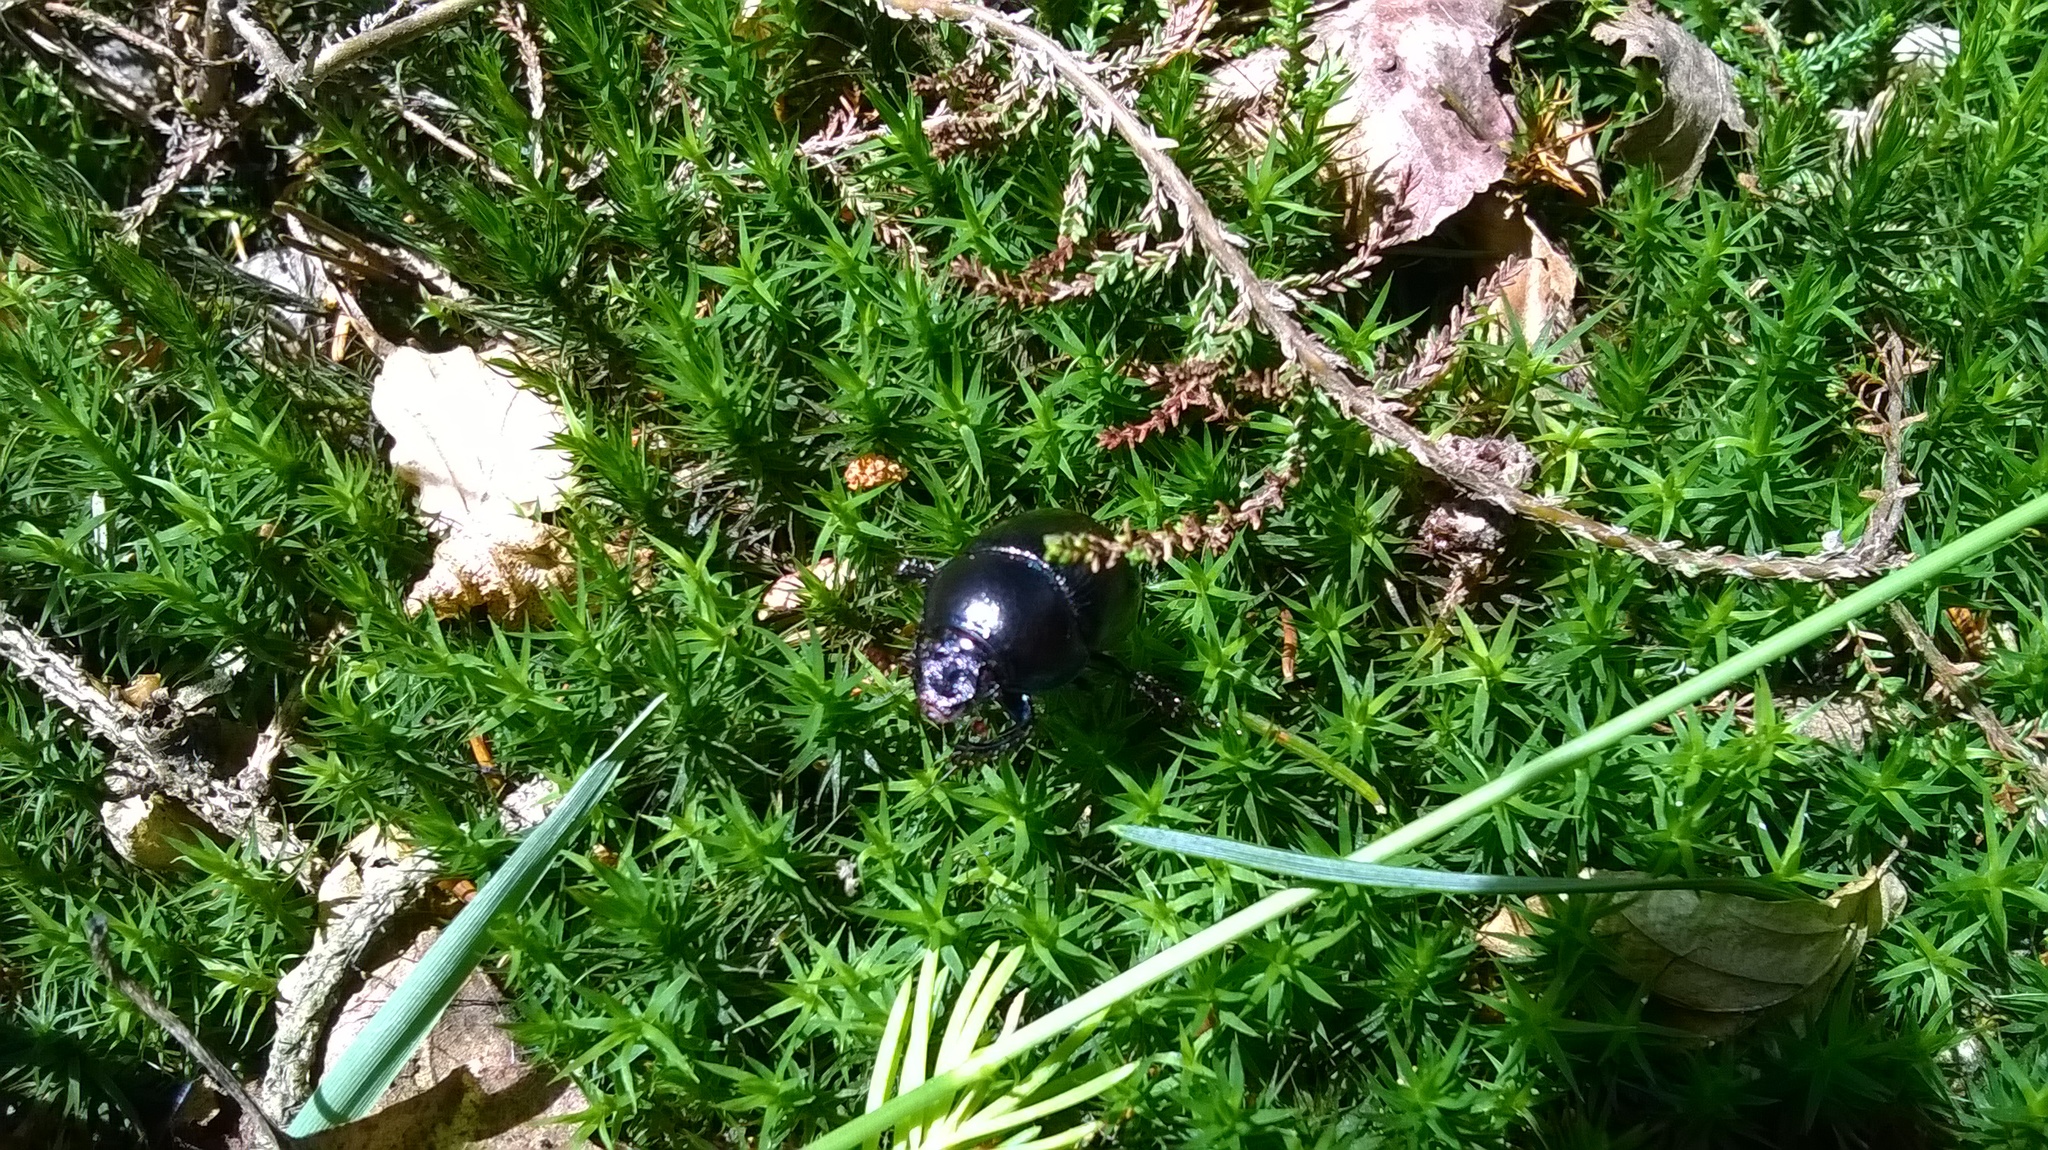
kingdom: Animalia
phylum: Arthropoda
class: Insecta
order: Coleoptera
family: Geotrupidae
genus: Anoplotrupes
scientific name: Anoplotrupes stercorosus
